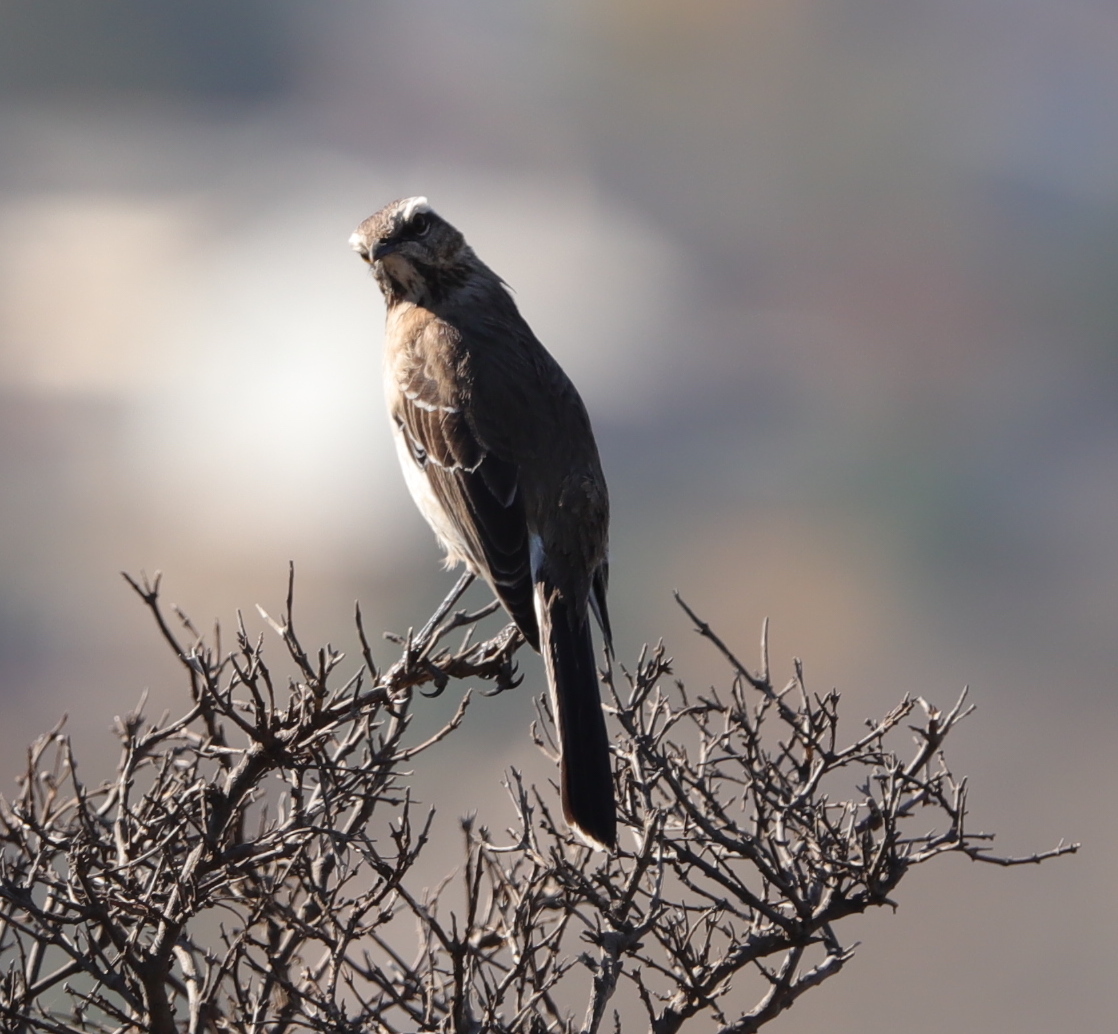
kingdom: Animalia
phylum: Chordata
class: Aves
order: Passeriformes
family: Mimidae
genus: Mimus
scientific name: Mimus thenca
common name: Chilean mockingbird
